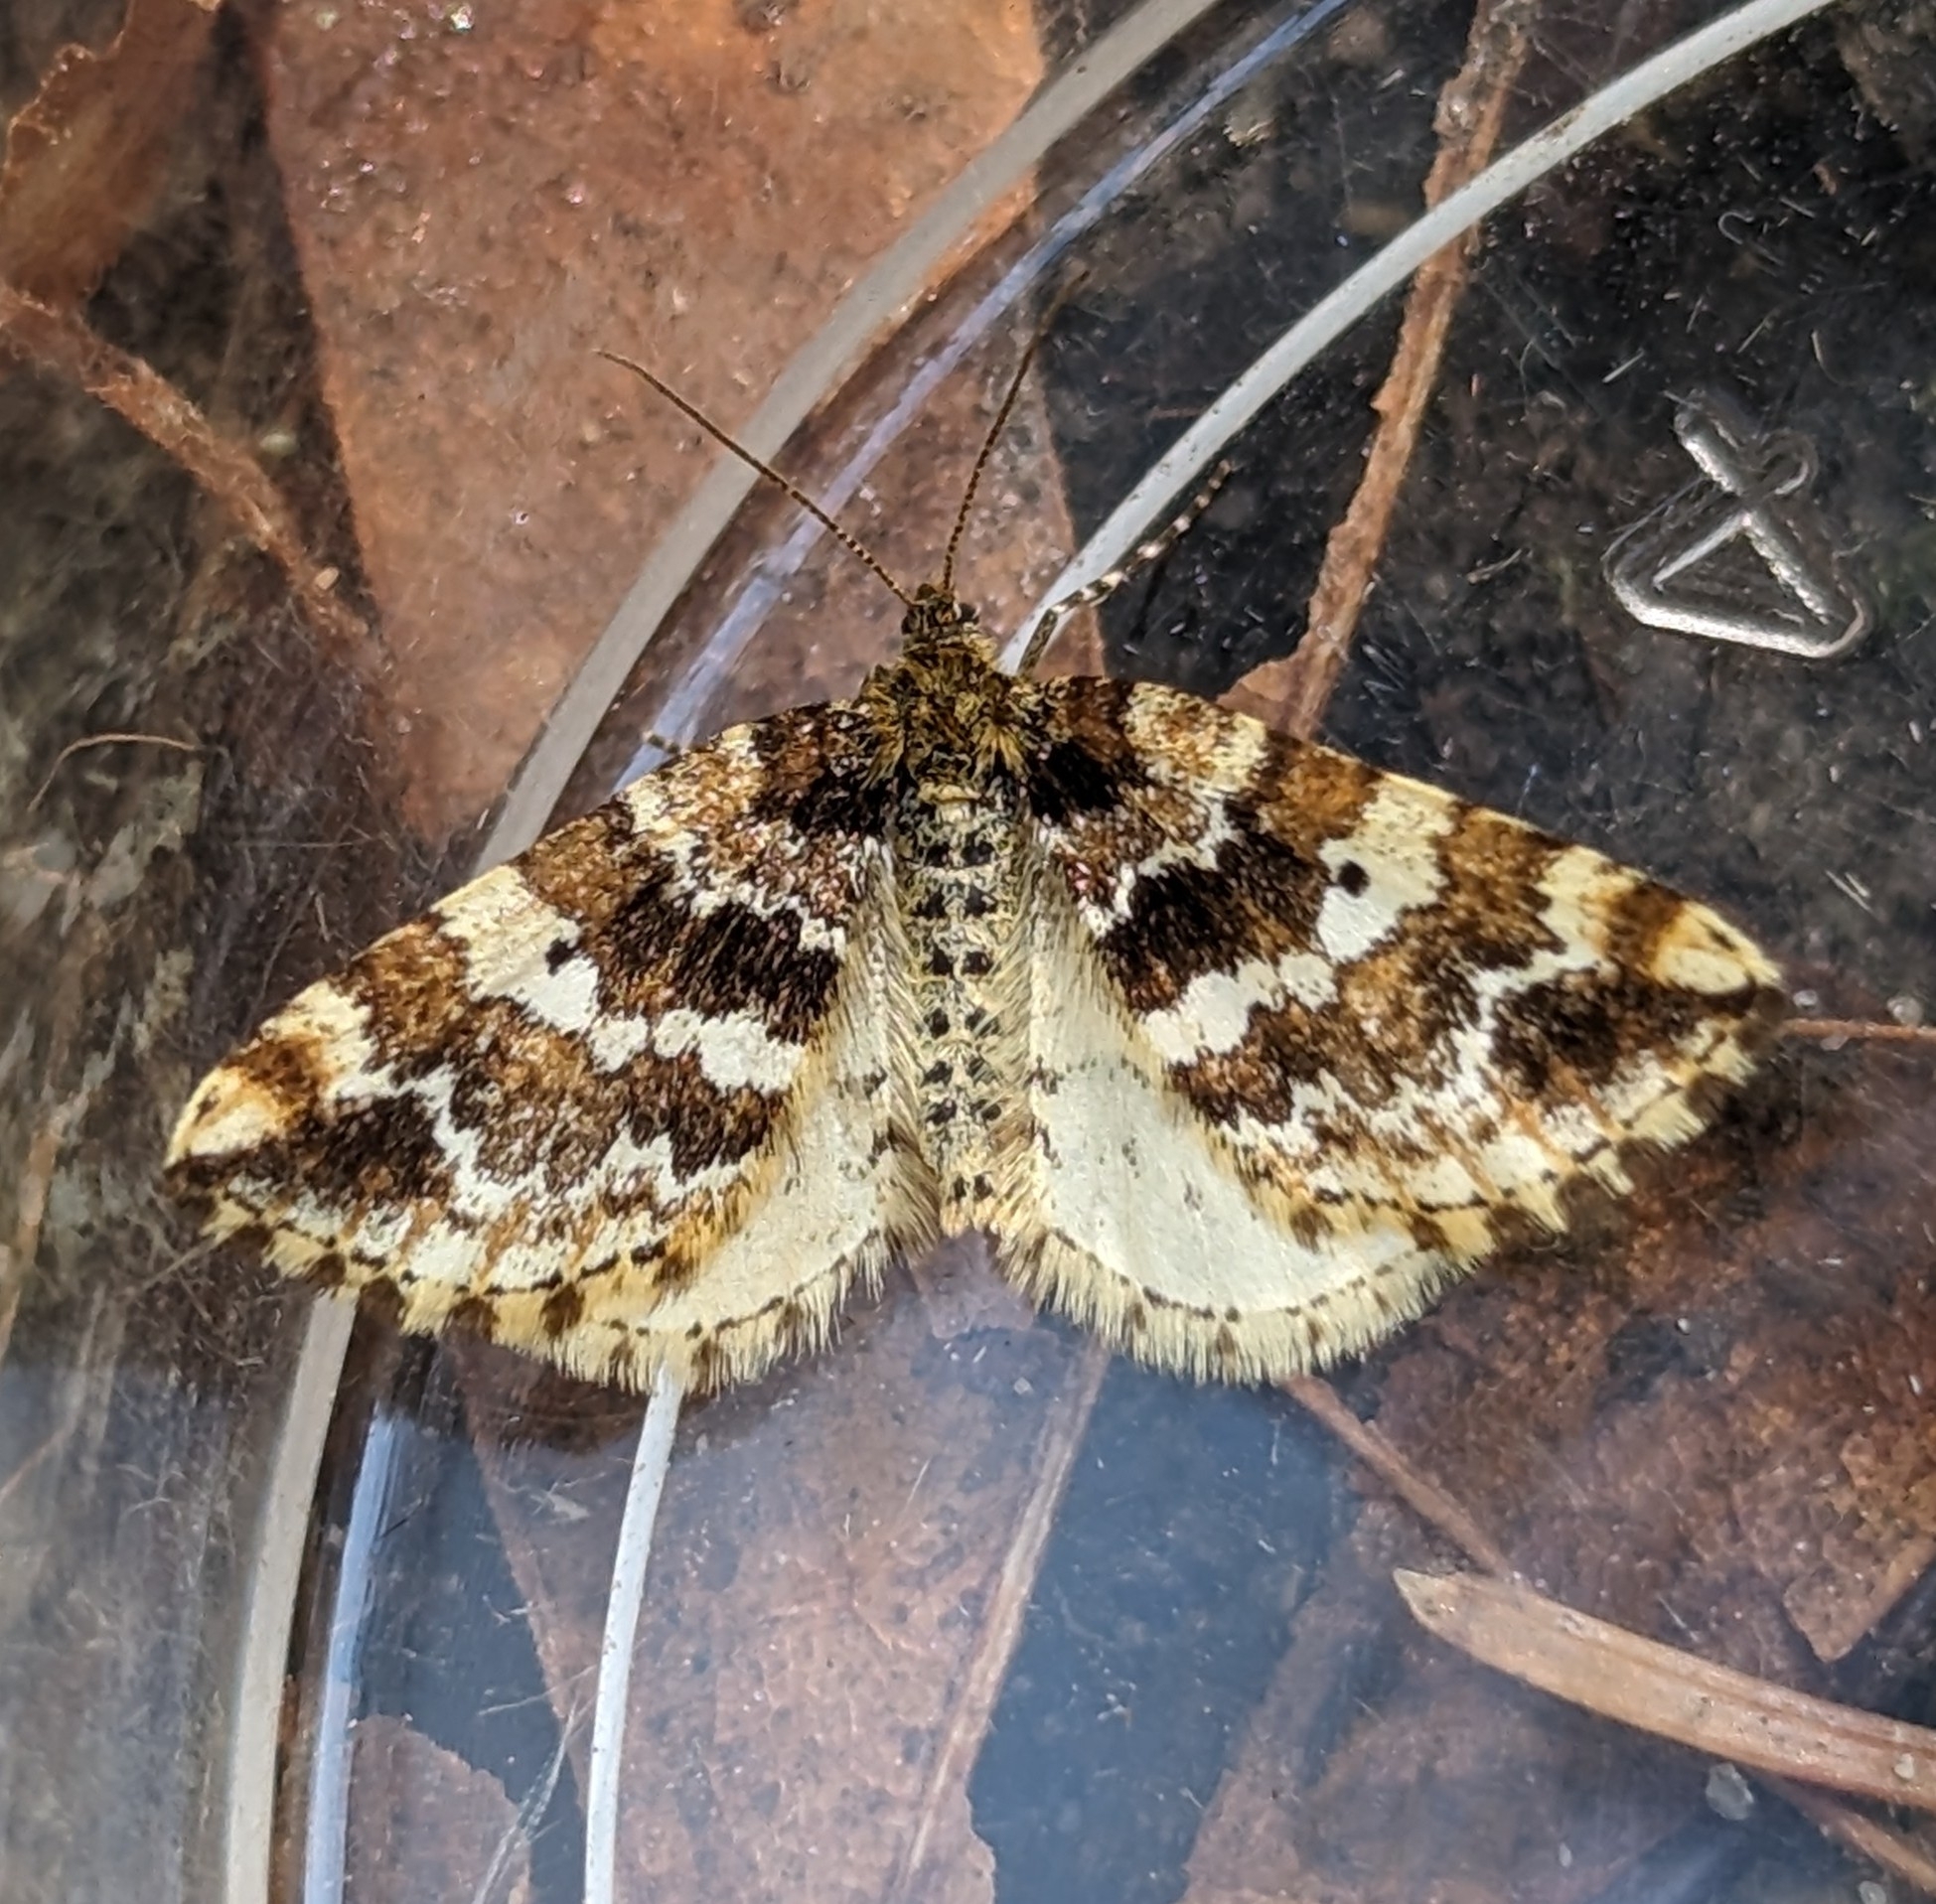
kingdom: Animalia
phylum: Arthropoda
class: Insecta
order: Lepidoptera
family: Geometridae
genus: Enchoria
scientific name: Enchoria lacteata
